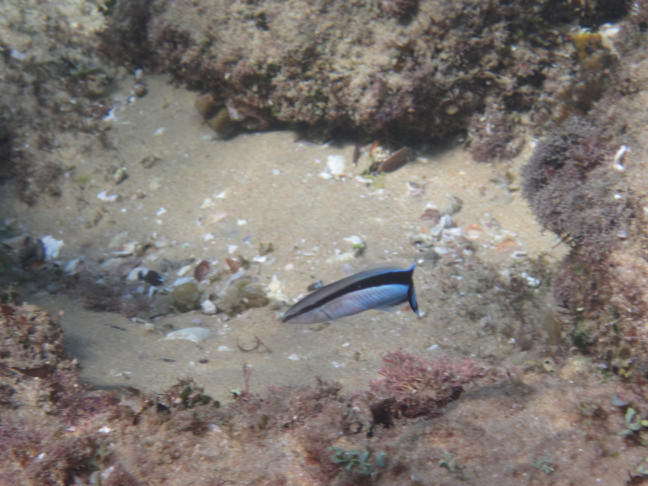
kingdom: Animalia
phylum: Chordata
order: Perciformes
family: Labridae
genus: Labroides
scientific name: Labroides dimidiatus
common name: Blue diesel wrasse
